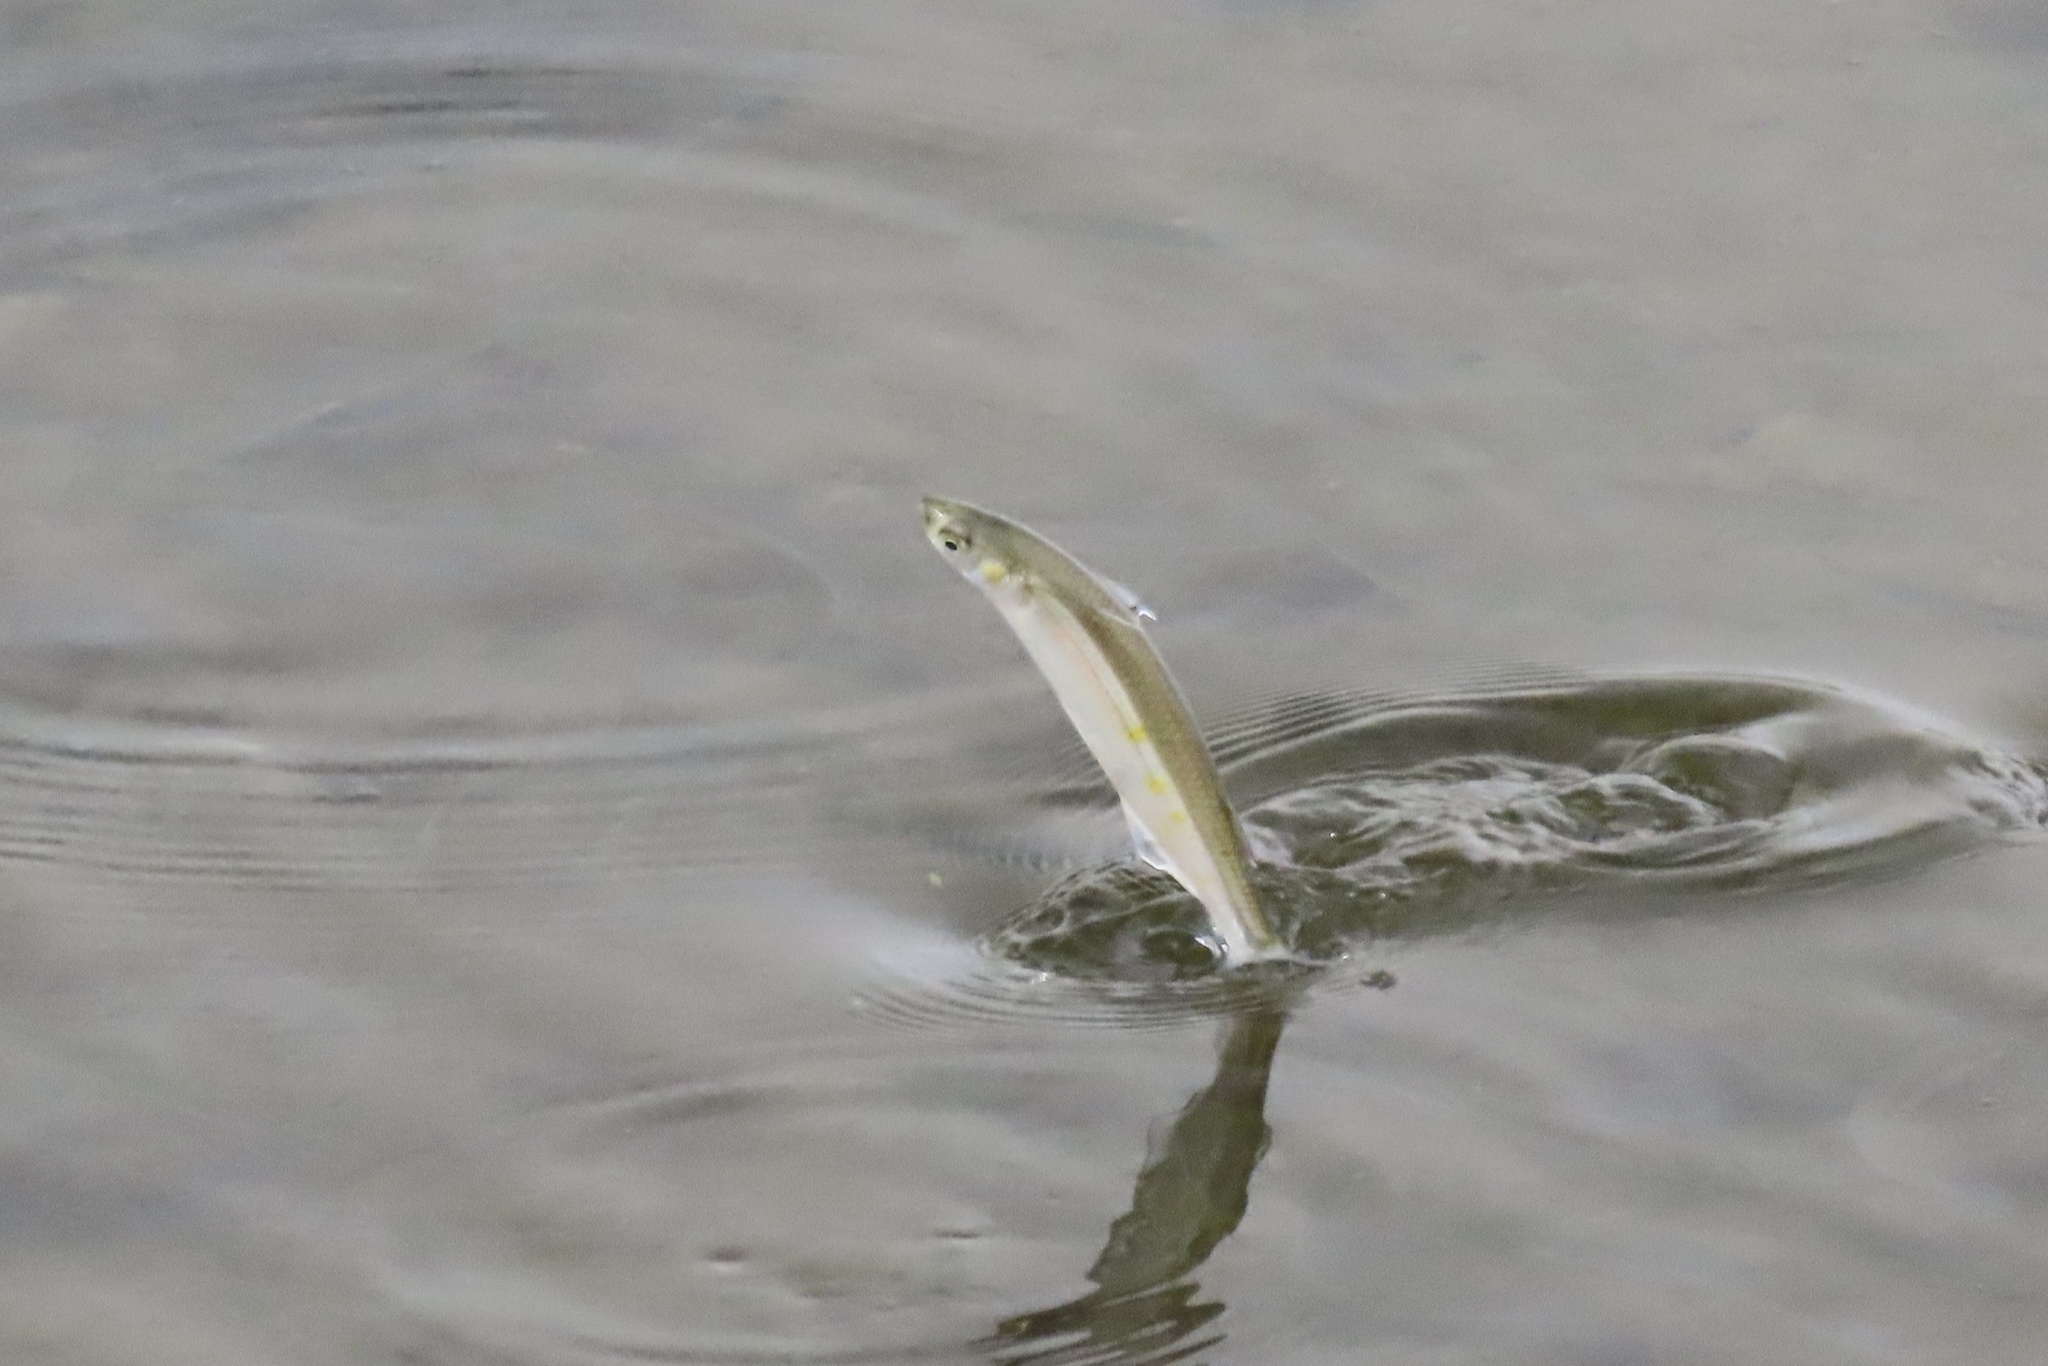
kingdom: Animalia
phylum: Chordata
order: Atheriniformes
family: Atherinopsidae
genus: Atherinops
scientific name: Atherinops affinis
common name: Topsmelt
